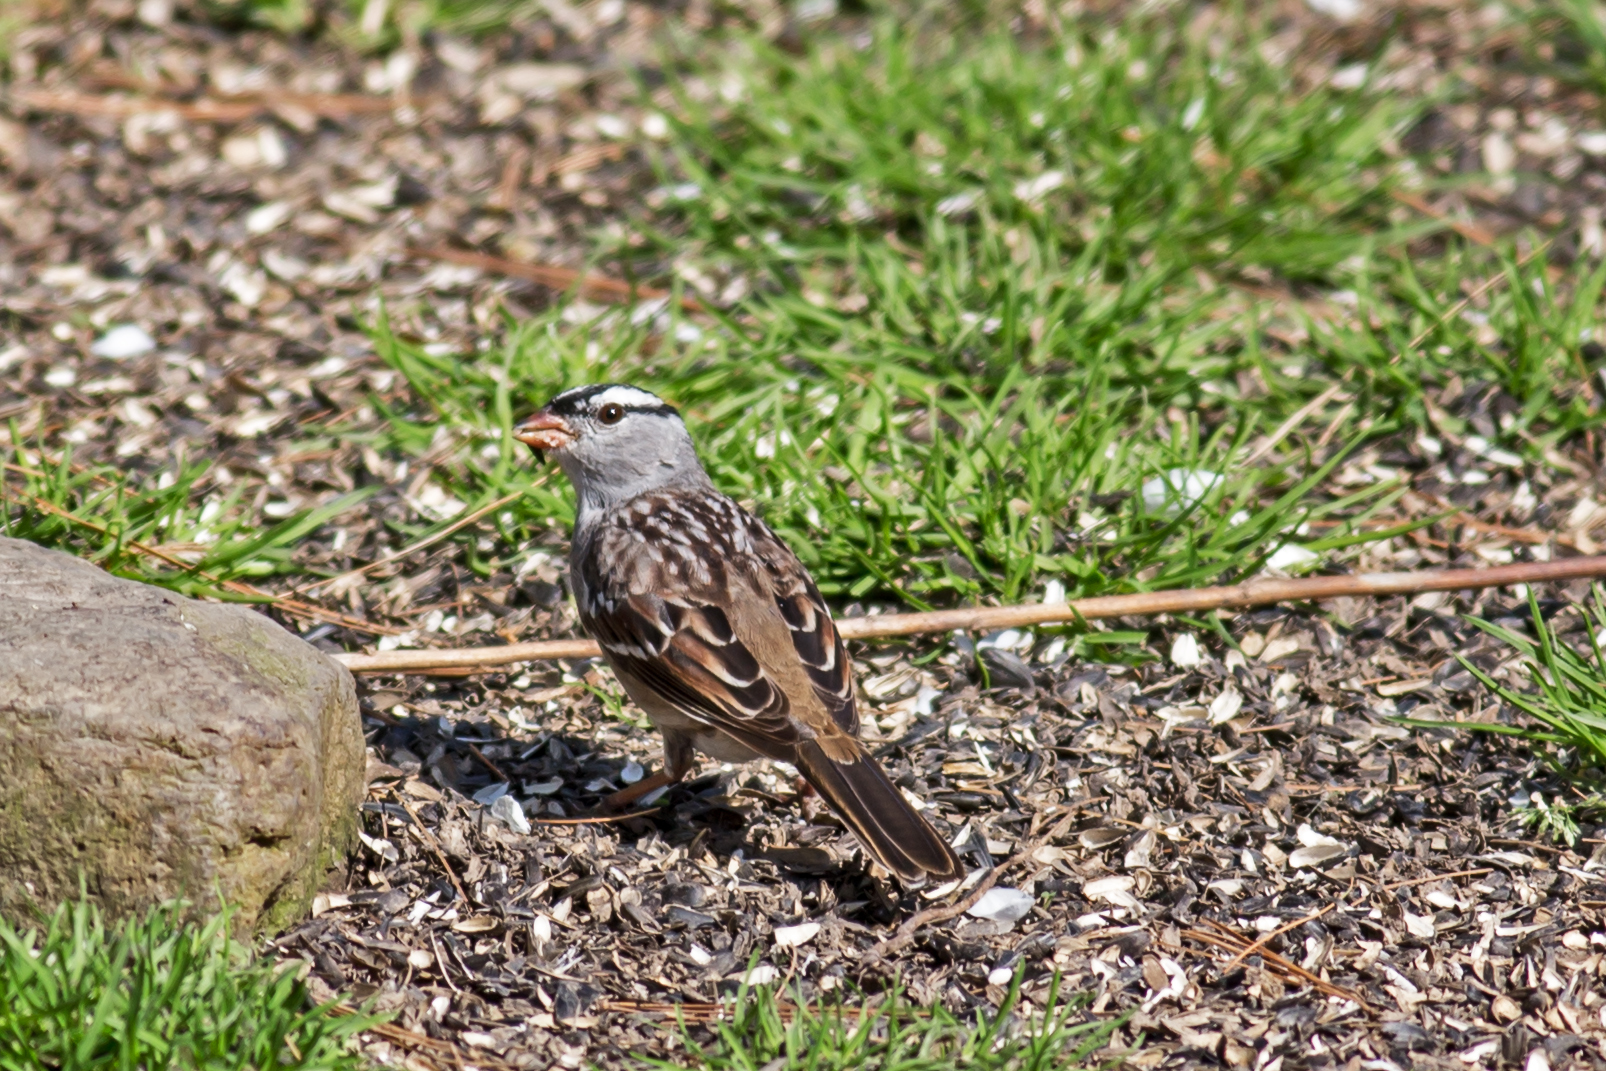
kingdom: Animalia
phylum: Chordata
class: Aves
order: Passeriformes
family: Passerellidae
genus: Zonotrichia
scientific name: Zonotrichia leucophrys
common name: White-crowned sparrow
